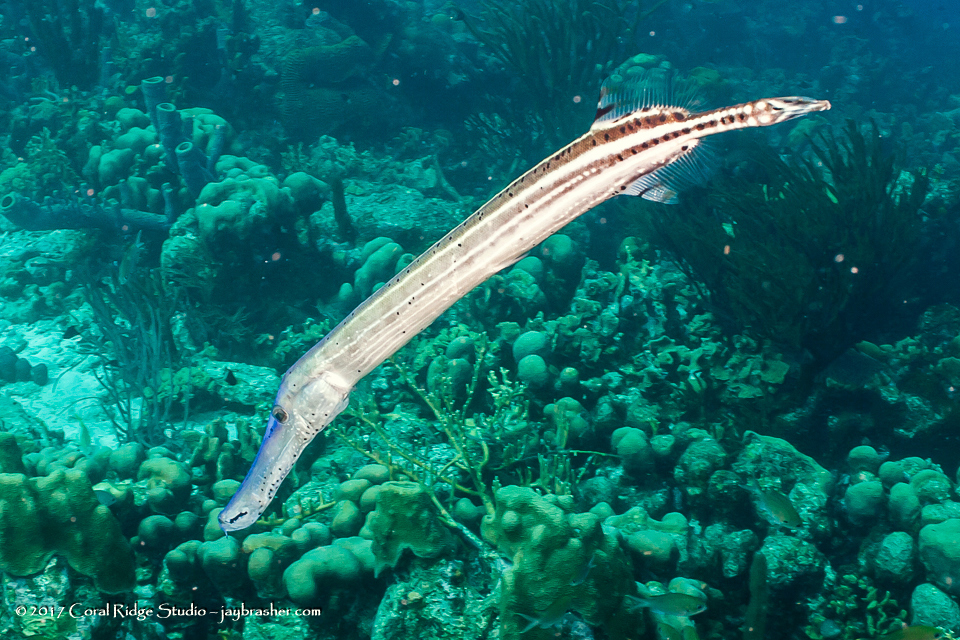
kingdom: Animalia
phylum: Chordata
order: Syngnathiformes
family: Aulostomidae
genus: Aulostomus
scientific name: Aulostomus maculatus
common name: West atlantic trumpetfish
